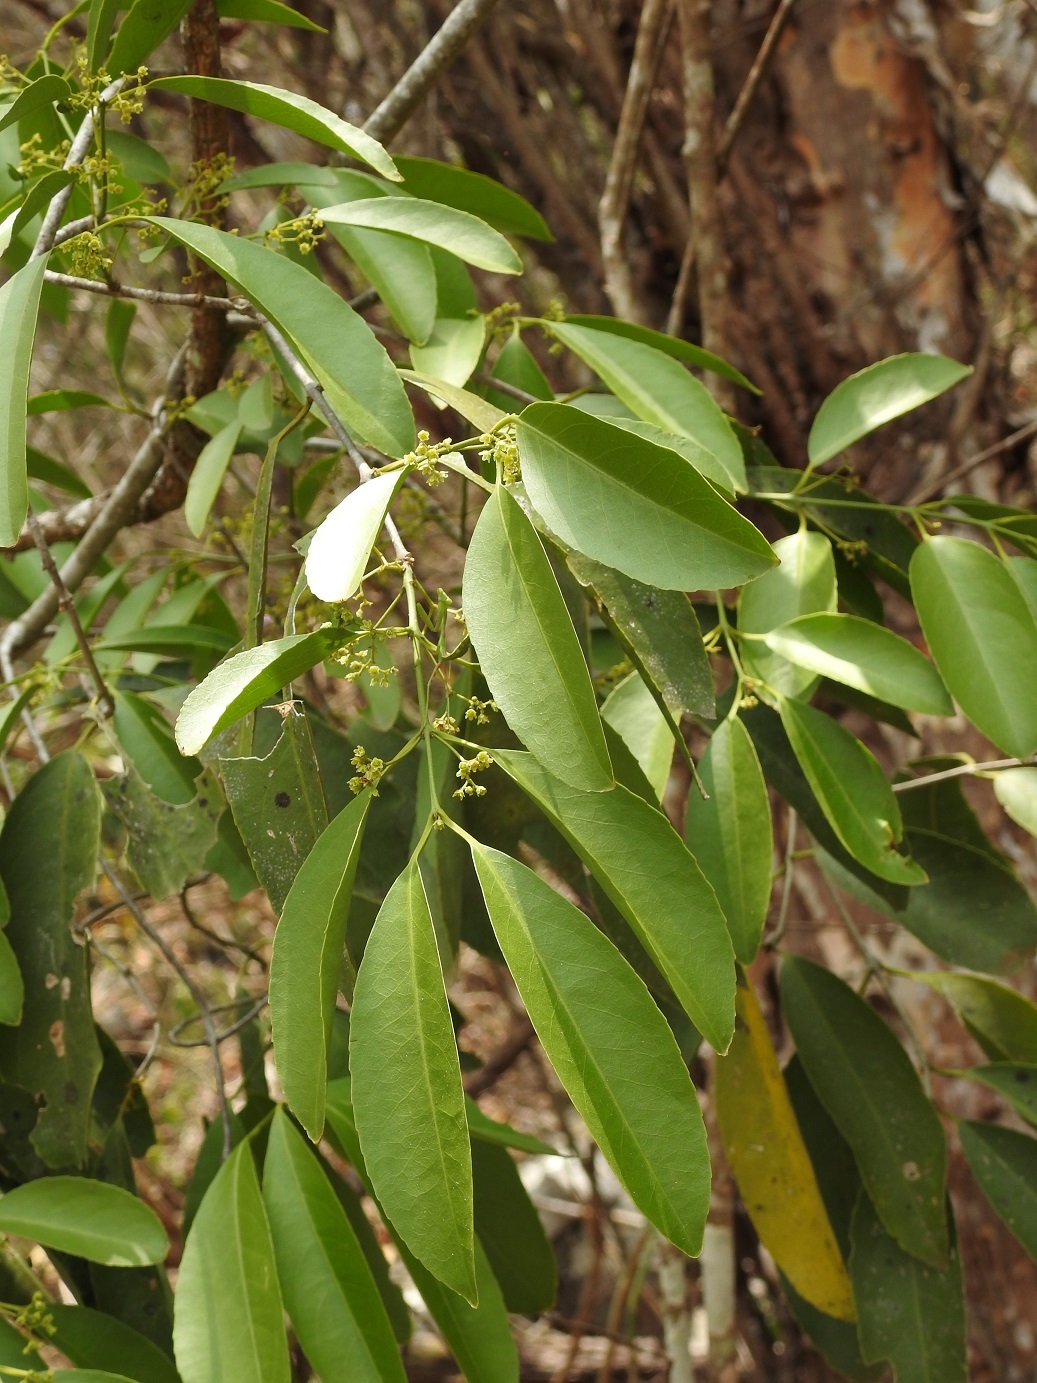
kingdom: Plantae
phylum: Tracheophyta
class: Magnoliopsida
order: Celastrales
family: Celastraceae
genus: Pristimera
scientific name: Pristimera celastroides
